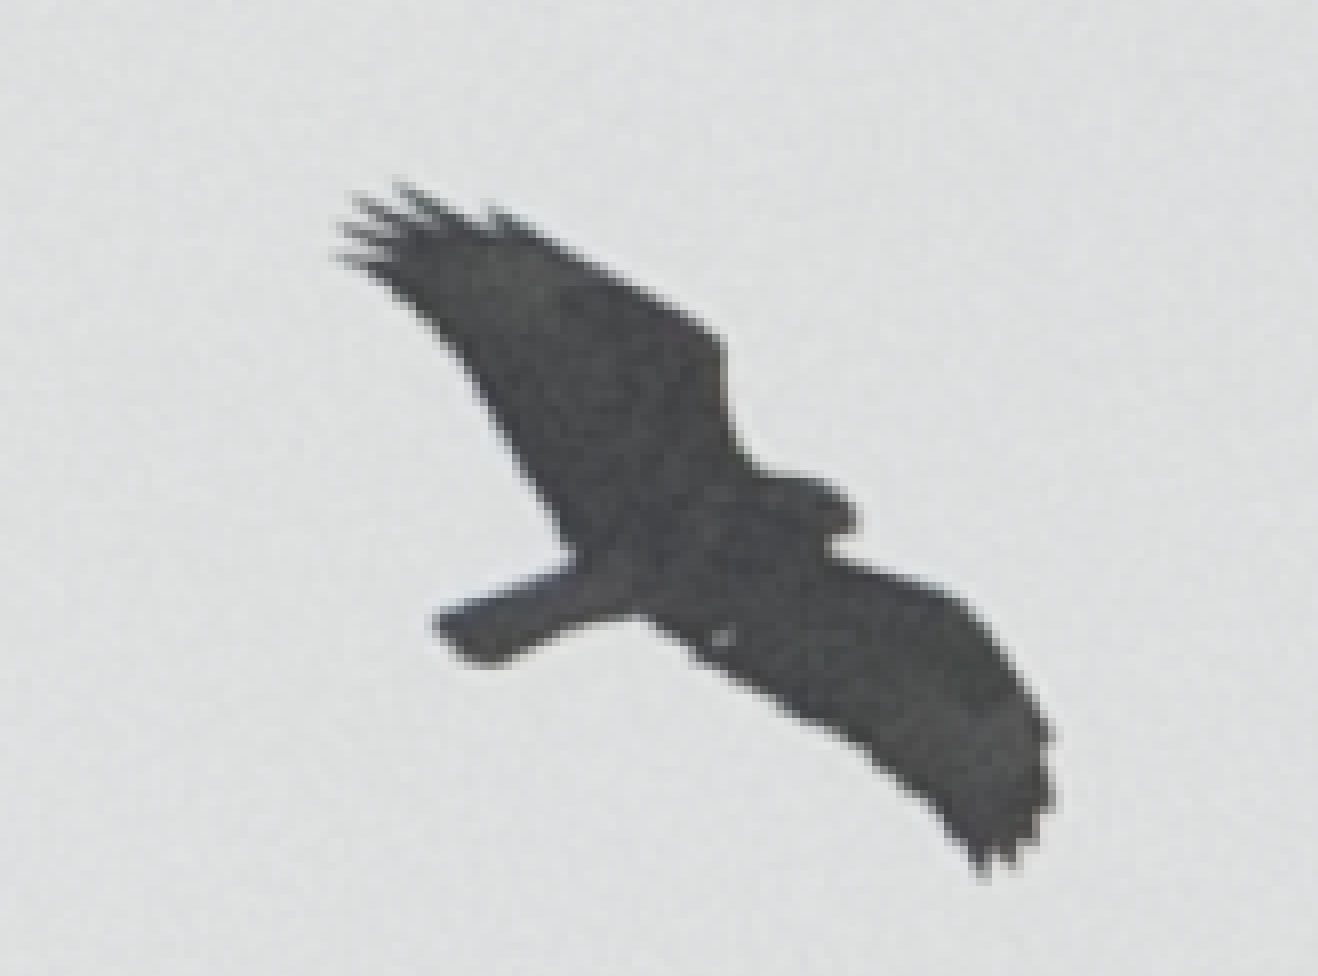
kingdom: Animalia
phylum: Chordata
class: Aves
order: Accipitriformes
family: Accipitridae
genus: Buteo
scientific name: Buteo buteo
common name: Common buzzard
